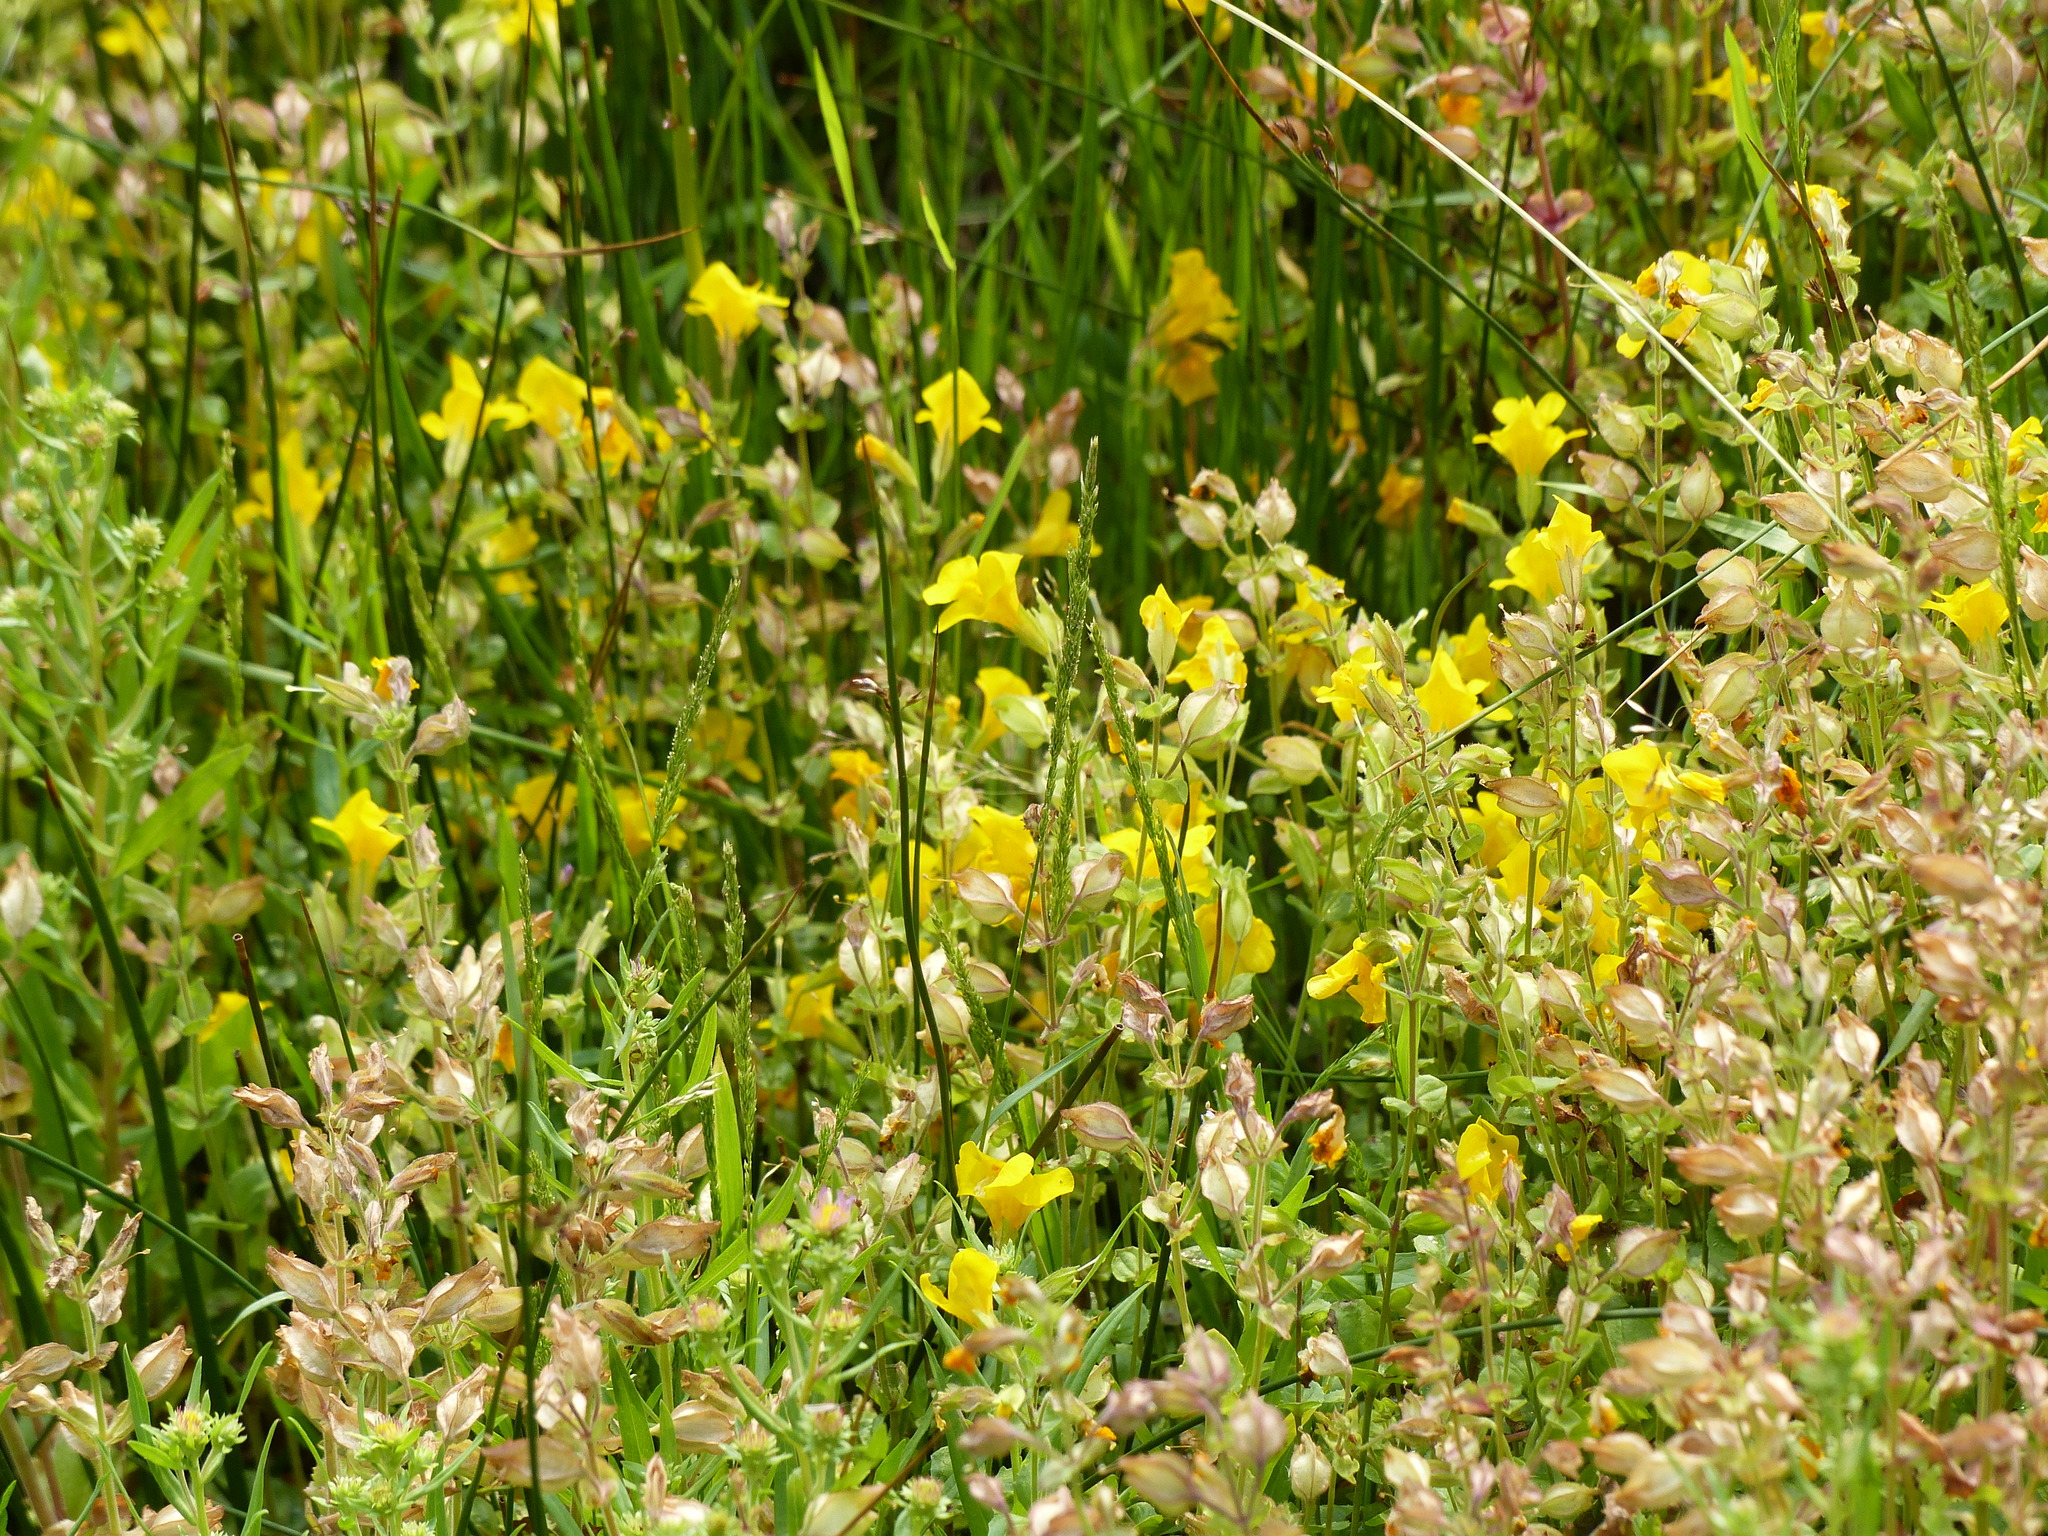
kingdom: Plantae
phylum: Tracheophyta
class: Magnoliopsida
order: Lamiales
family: Phrymaceae
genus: Erythranthe
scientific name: Erythranthe guttata
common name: Monkeyflower
